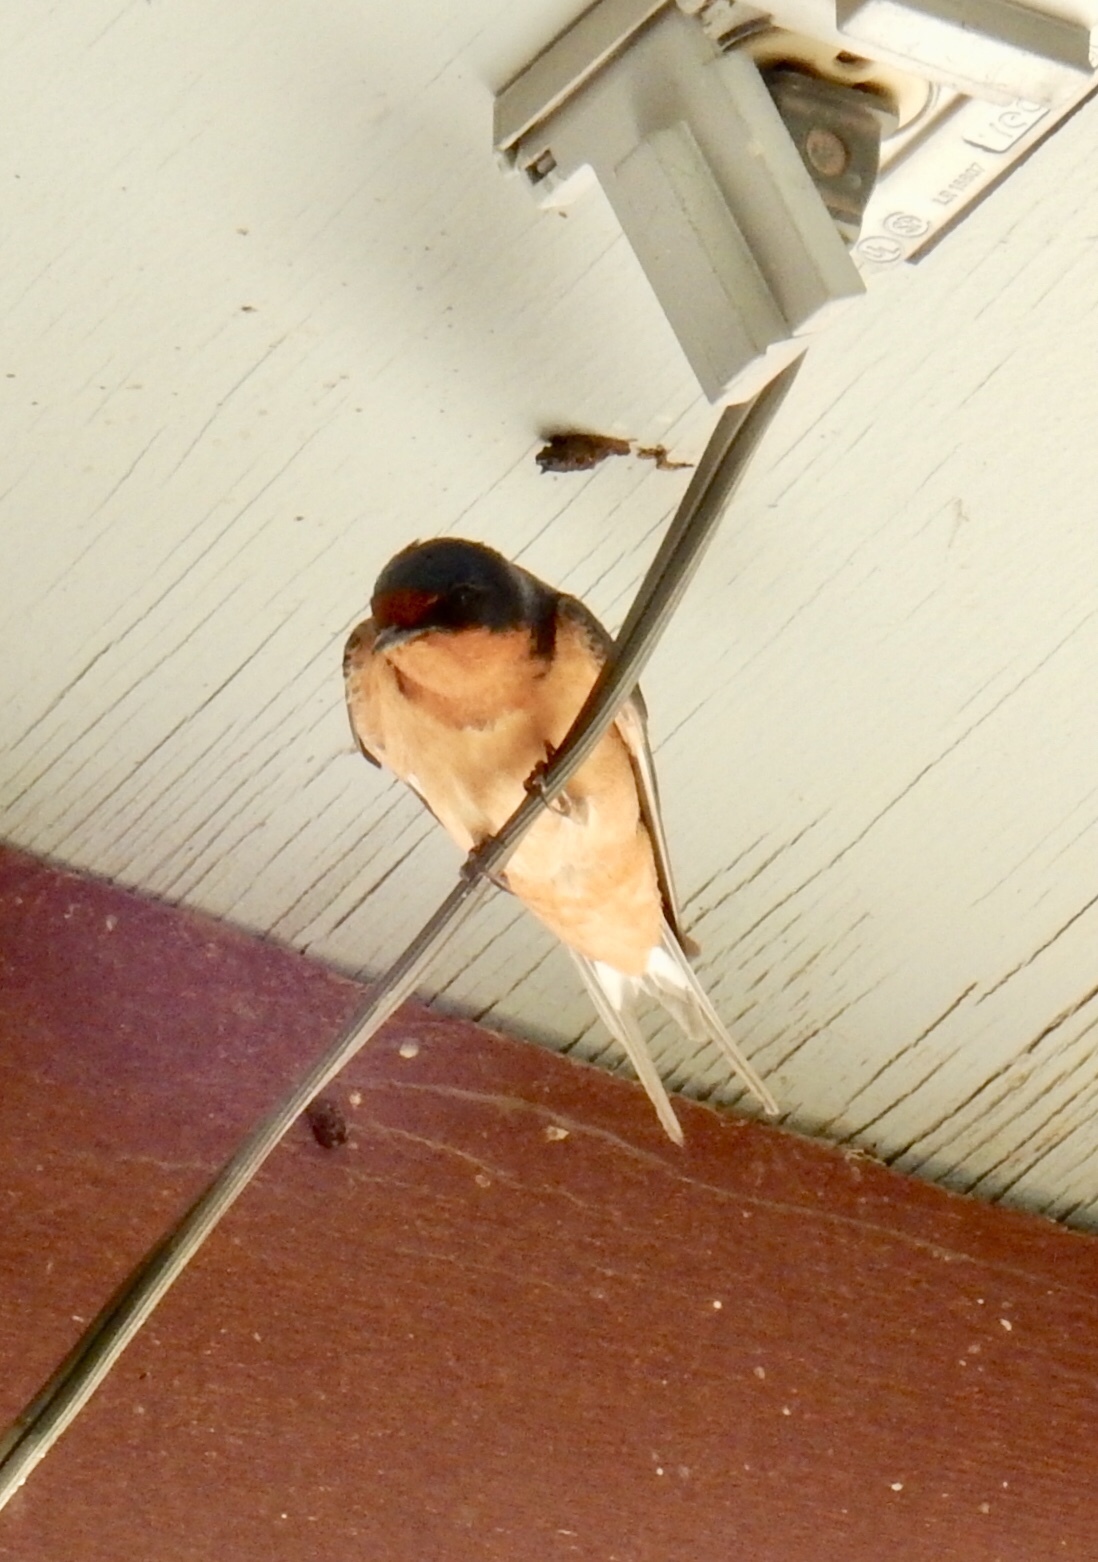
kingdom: Animalia
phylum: Chordata
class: Aves
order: Passeriformes
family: Hirundinidae
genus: Hirundo
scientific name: Hirundo rustica
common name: Barn swallow
